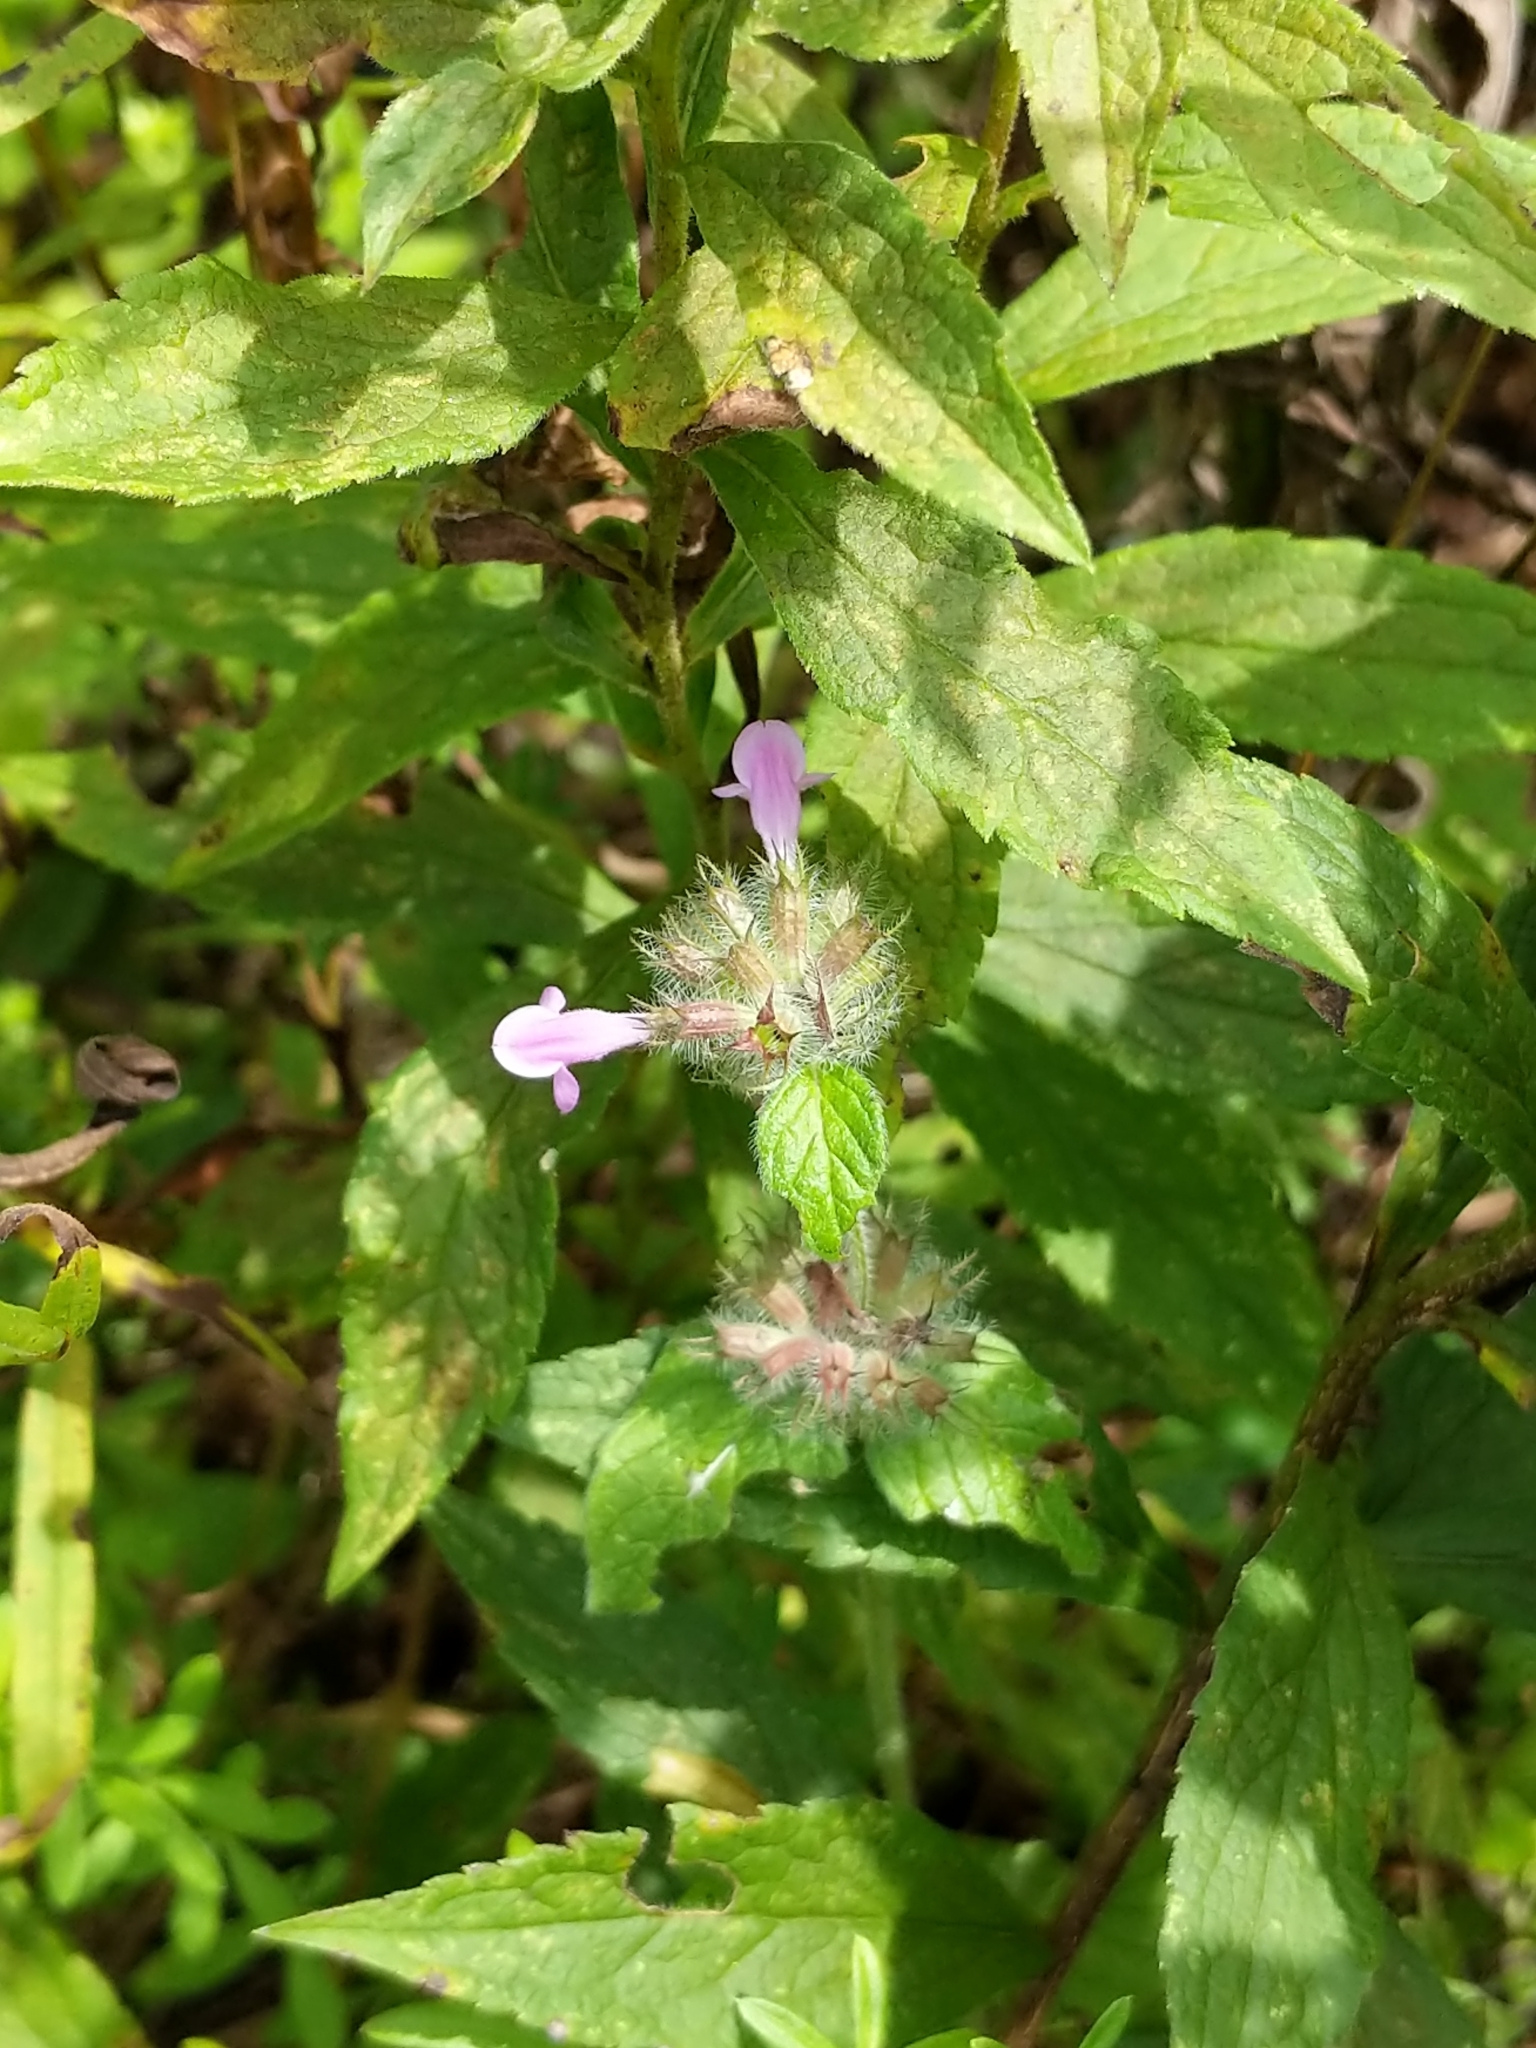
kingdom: Plantae
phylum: Tracheophyta
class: Magnoliopsida
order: Lamiales
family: Lamiaceae
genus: Clinopodium
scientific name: Clinopodium vulgare
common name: Wild basil
